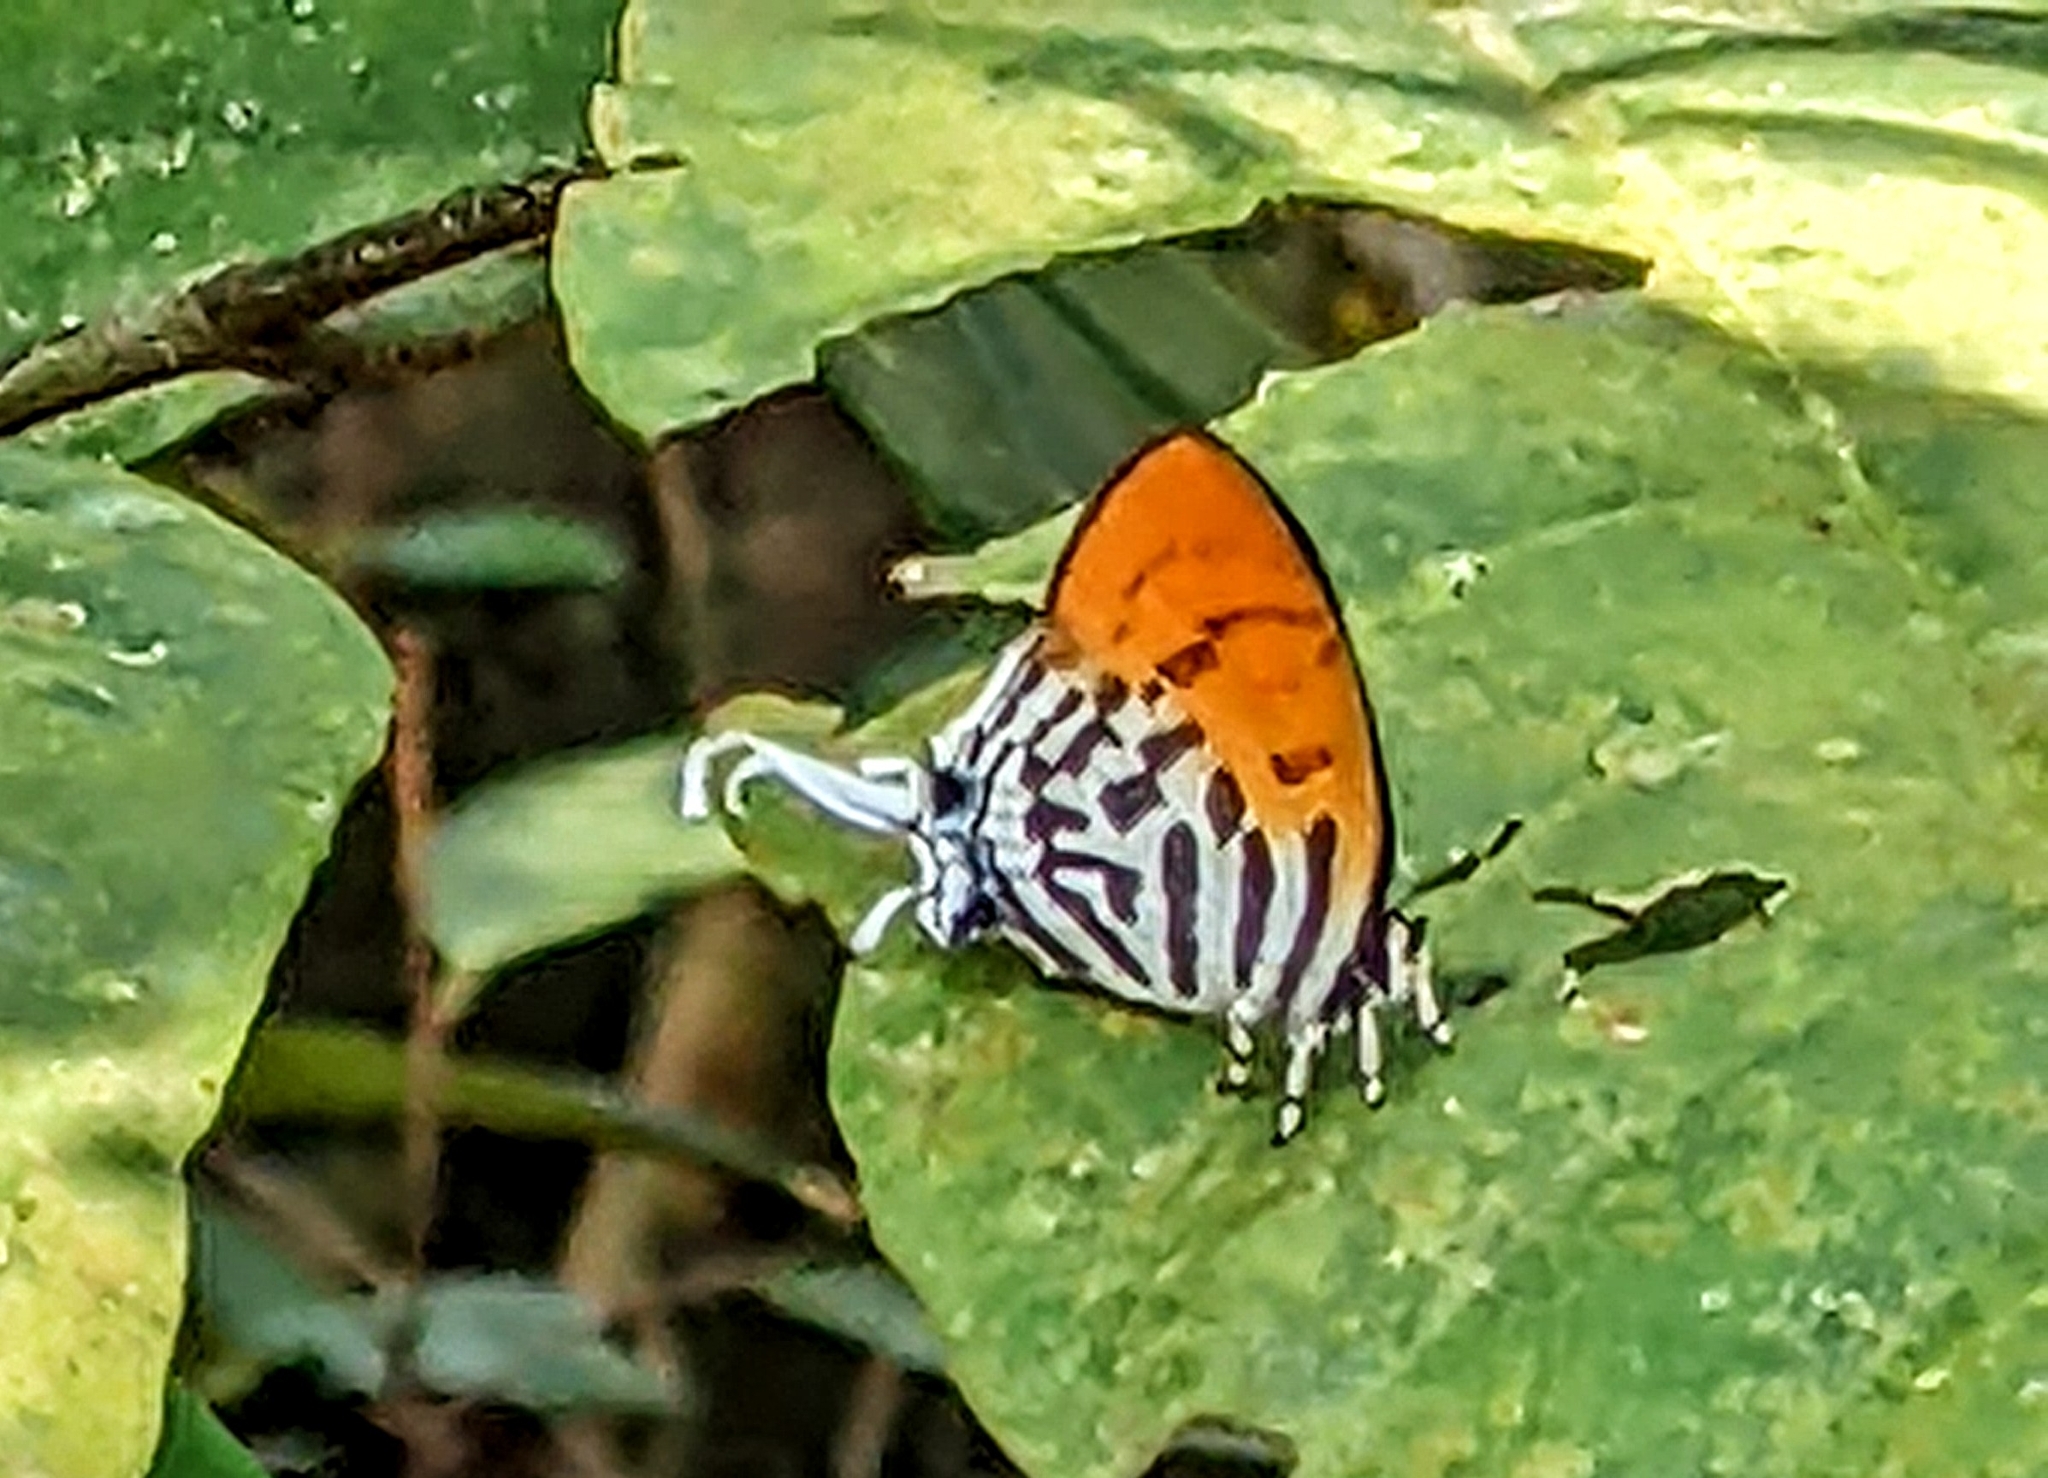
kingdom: Animalia
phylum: Arthropoda
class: Insecta
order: Lepidoptera
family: Lycaenidae
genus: Drupadia
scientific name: Drupadia ravindra
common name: Common posy
